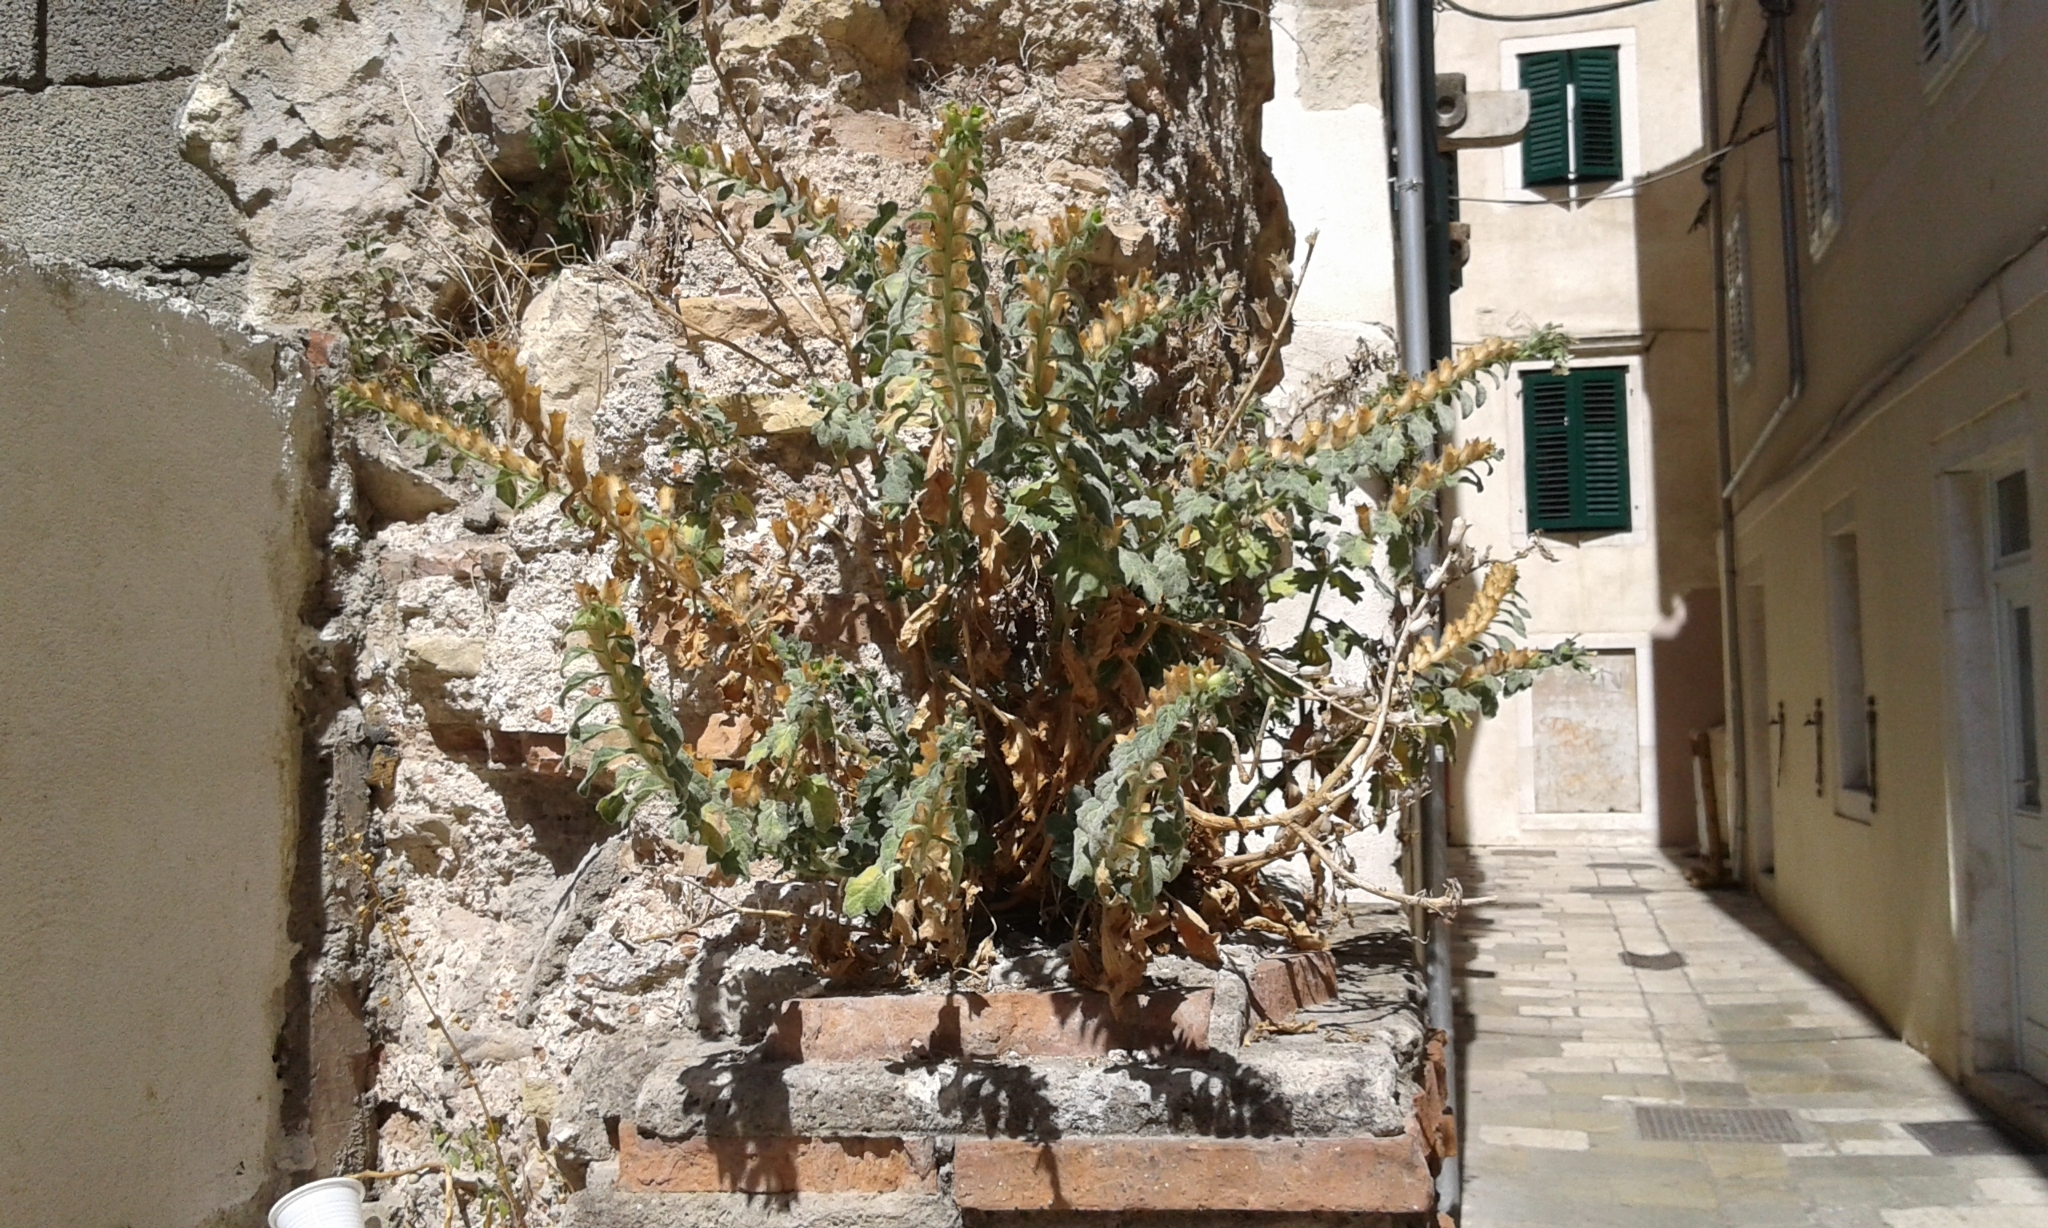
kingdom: Plantae
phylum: Tracheophyta
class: Magnoliopsida
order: Solanales
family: Solanaceae
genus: Hyoscyamus
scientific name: Hyoscyamus albus
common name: White henbane
